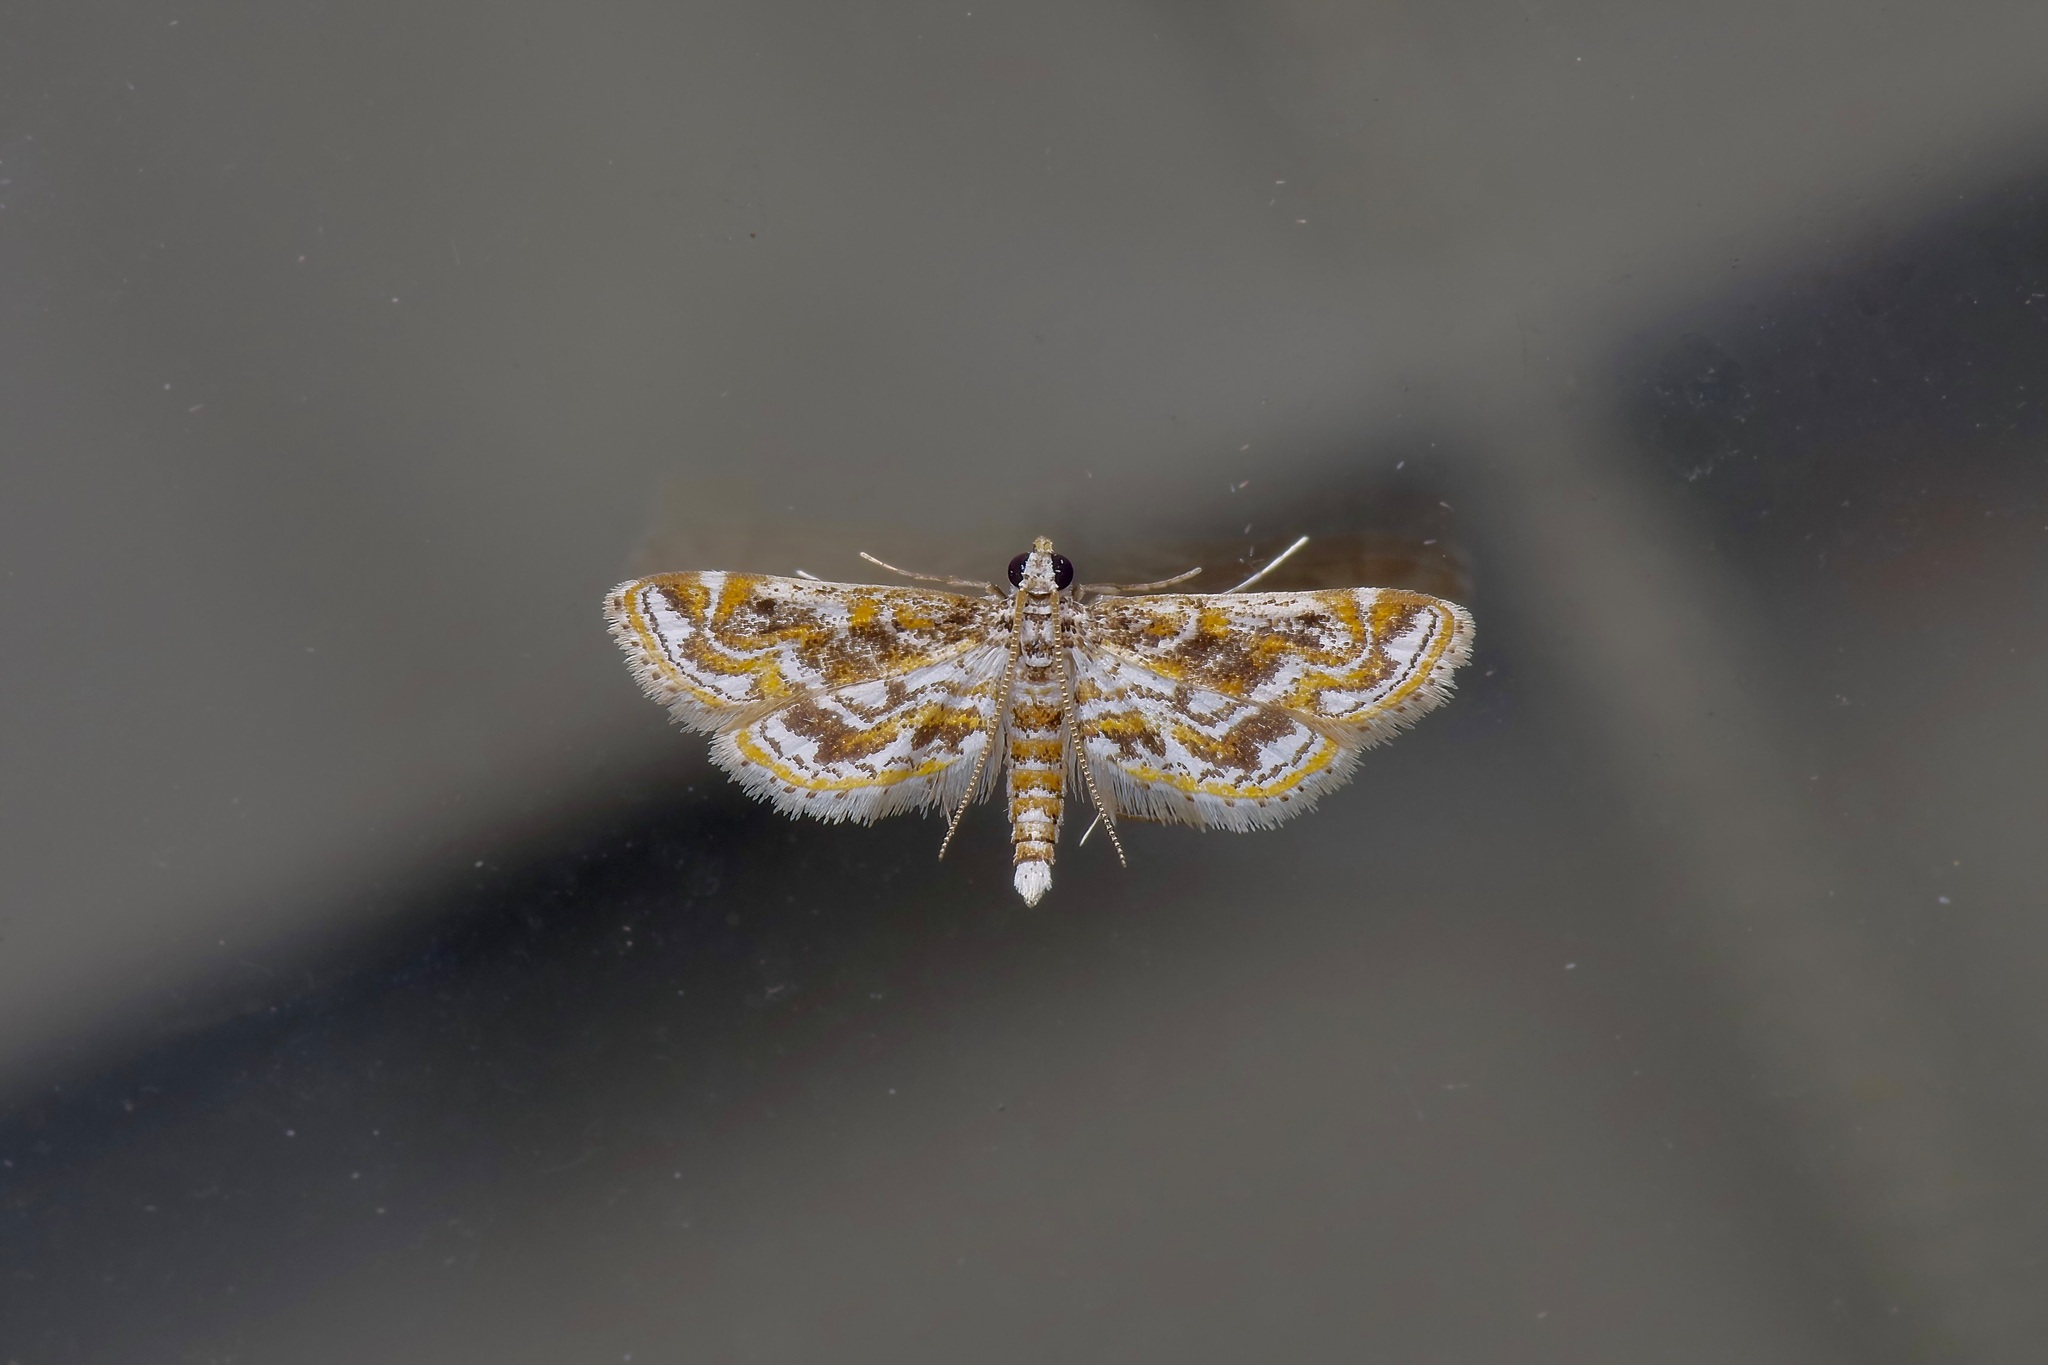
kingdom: Animalia
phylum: Arthropoda
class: Insecta
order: Lepidoptera
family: Crambidae
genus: Parapoynx
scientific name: Parapoynx diminutalis
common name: Hydrilla leafcutter
